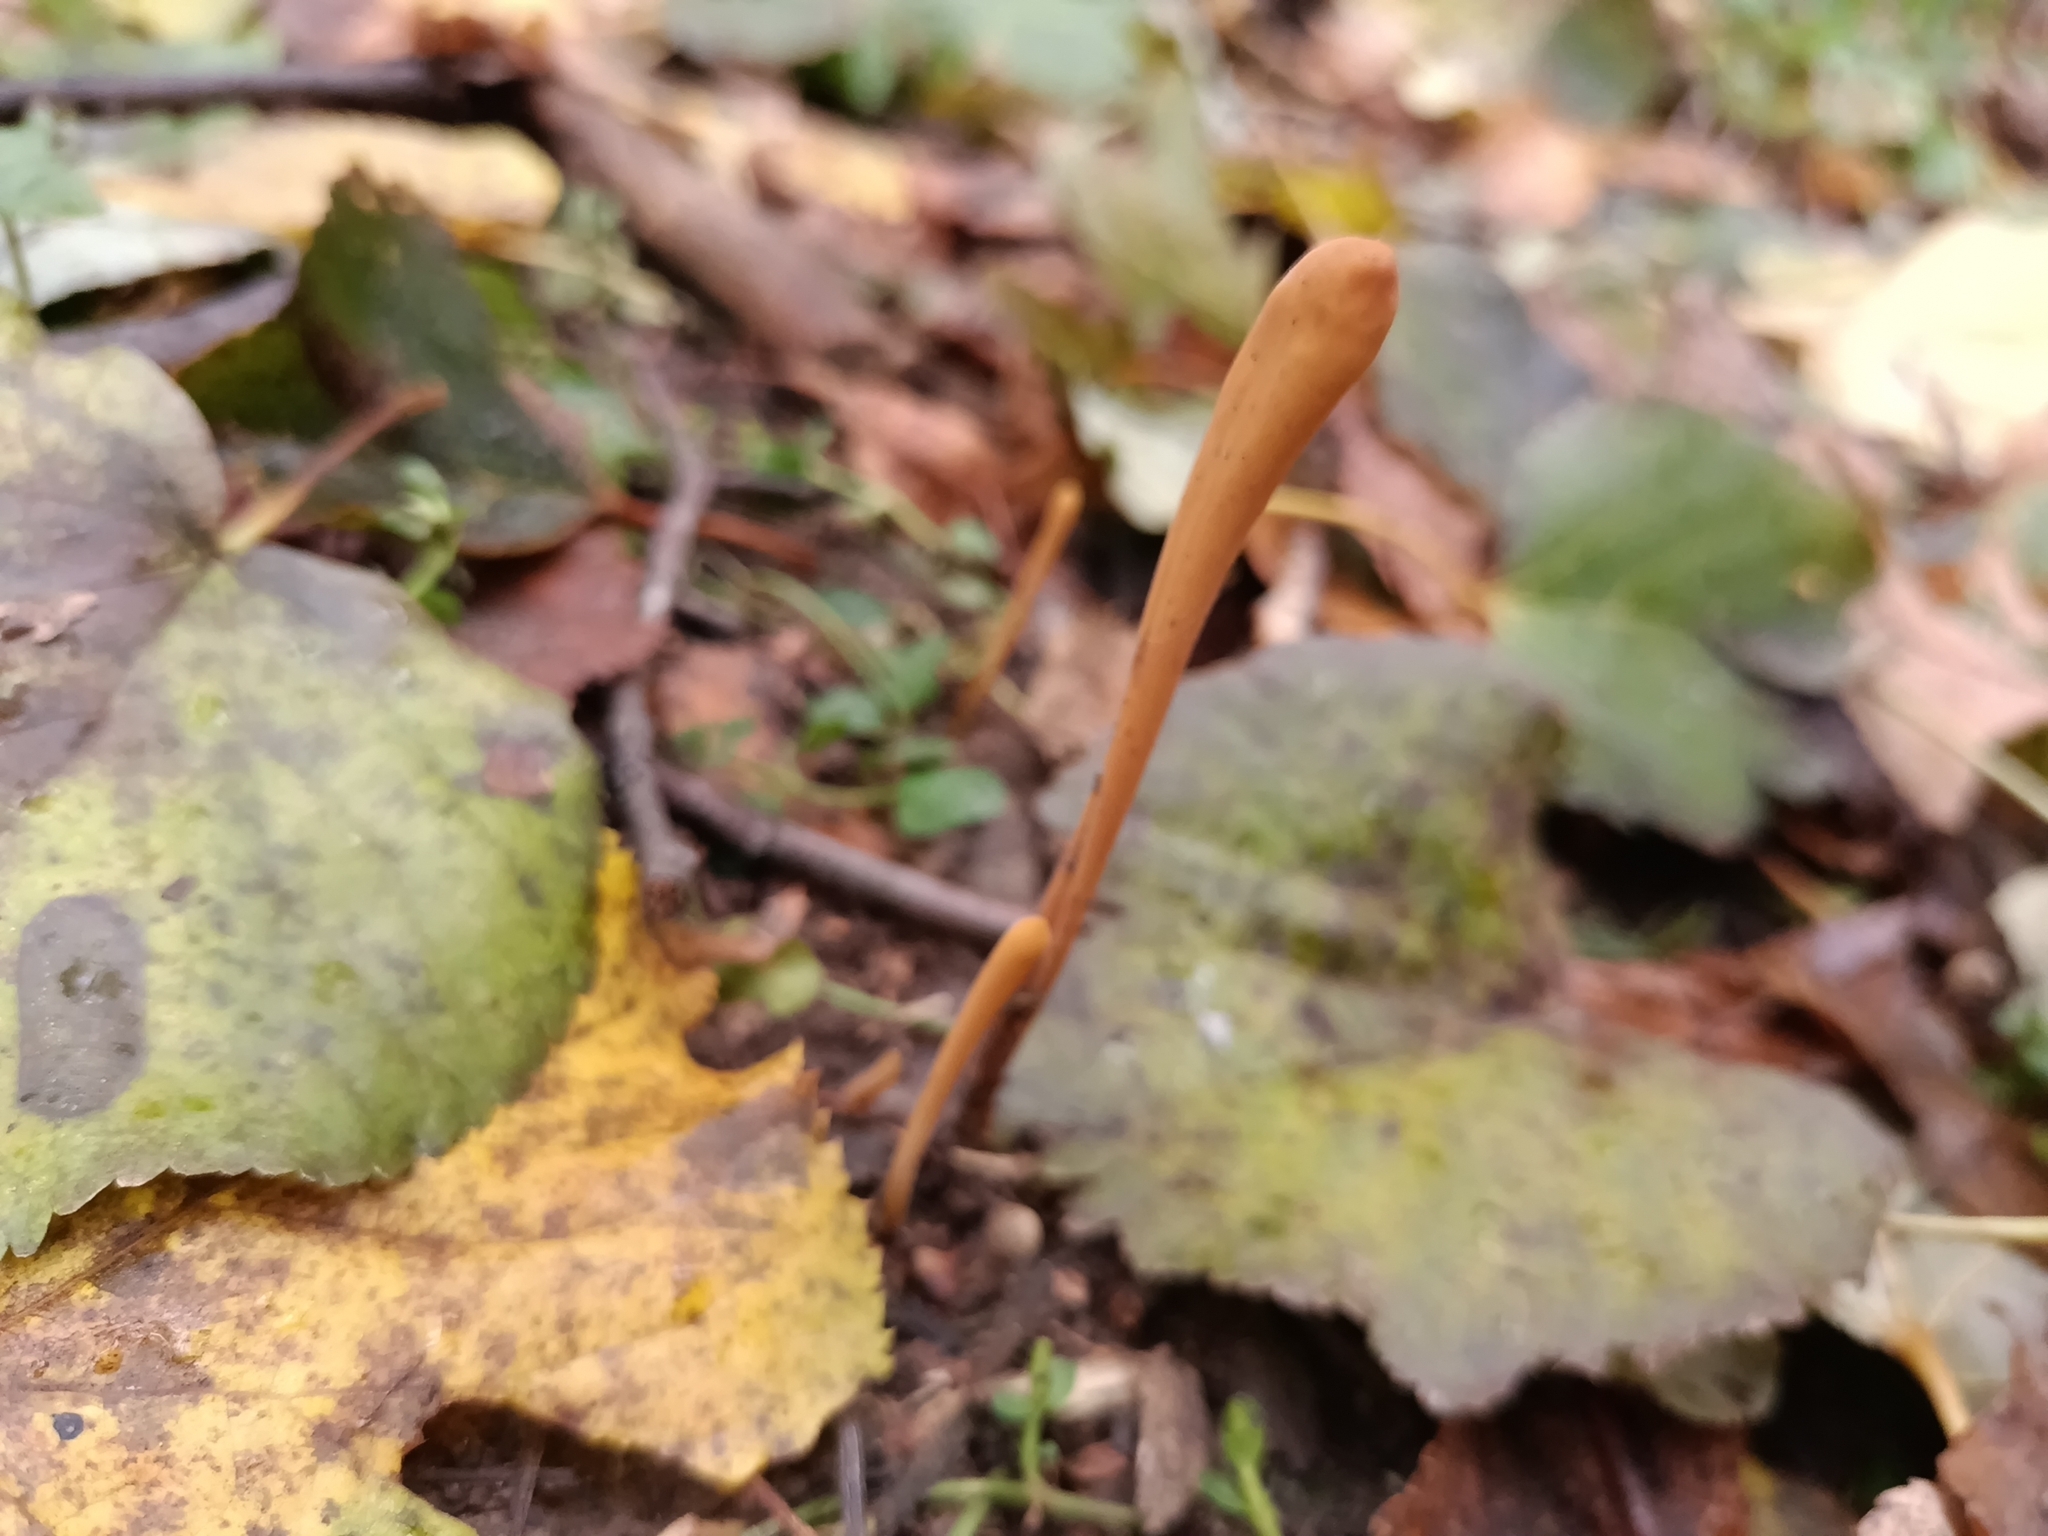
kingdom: Fungi
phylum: Basidiomycota
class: Agaricomycetes
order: Agaricales
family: Typhulaceae
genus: Typhula
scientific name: Typhula fistulosa
